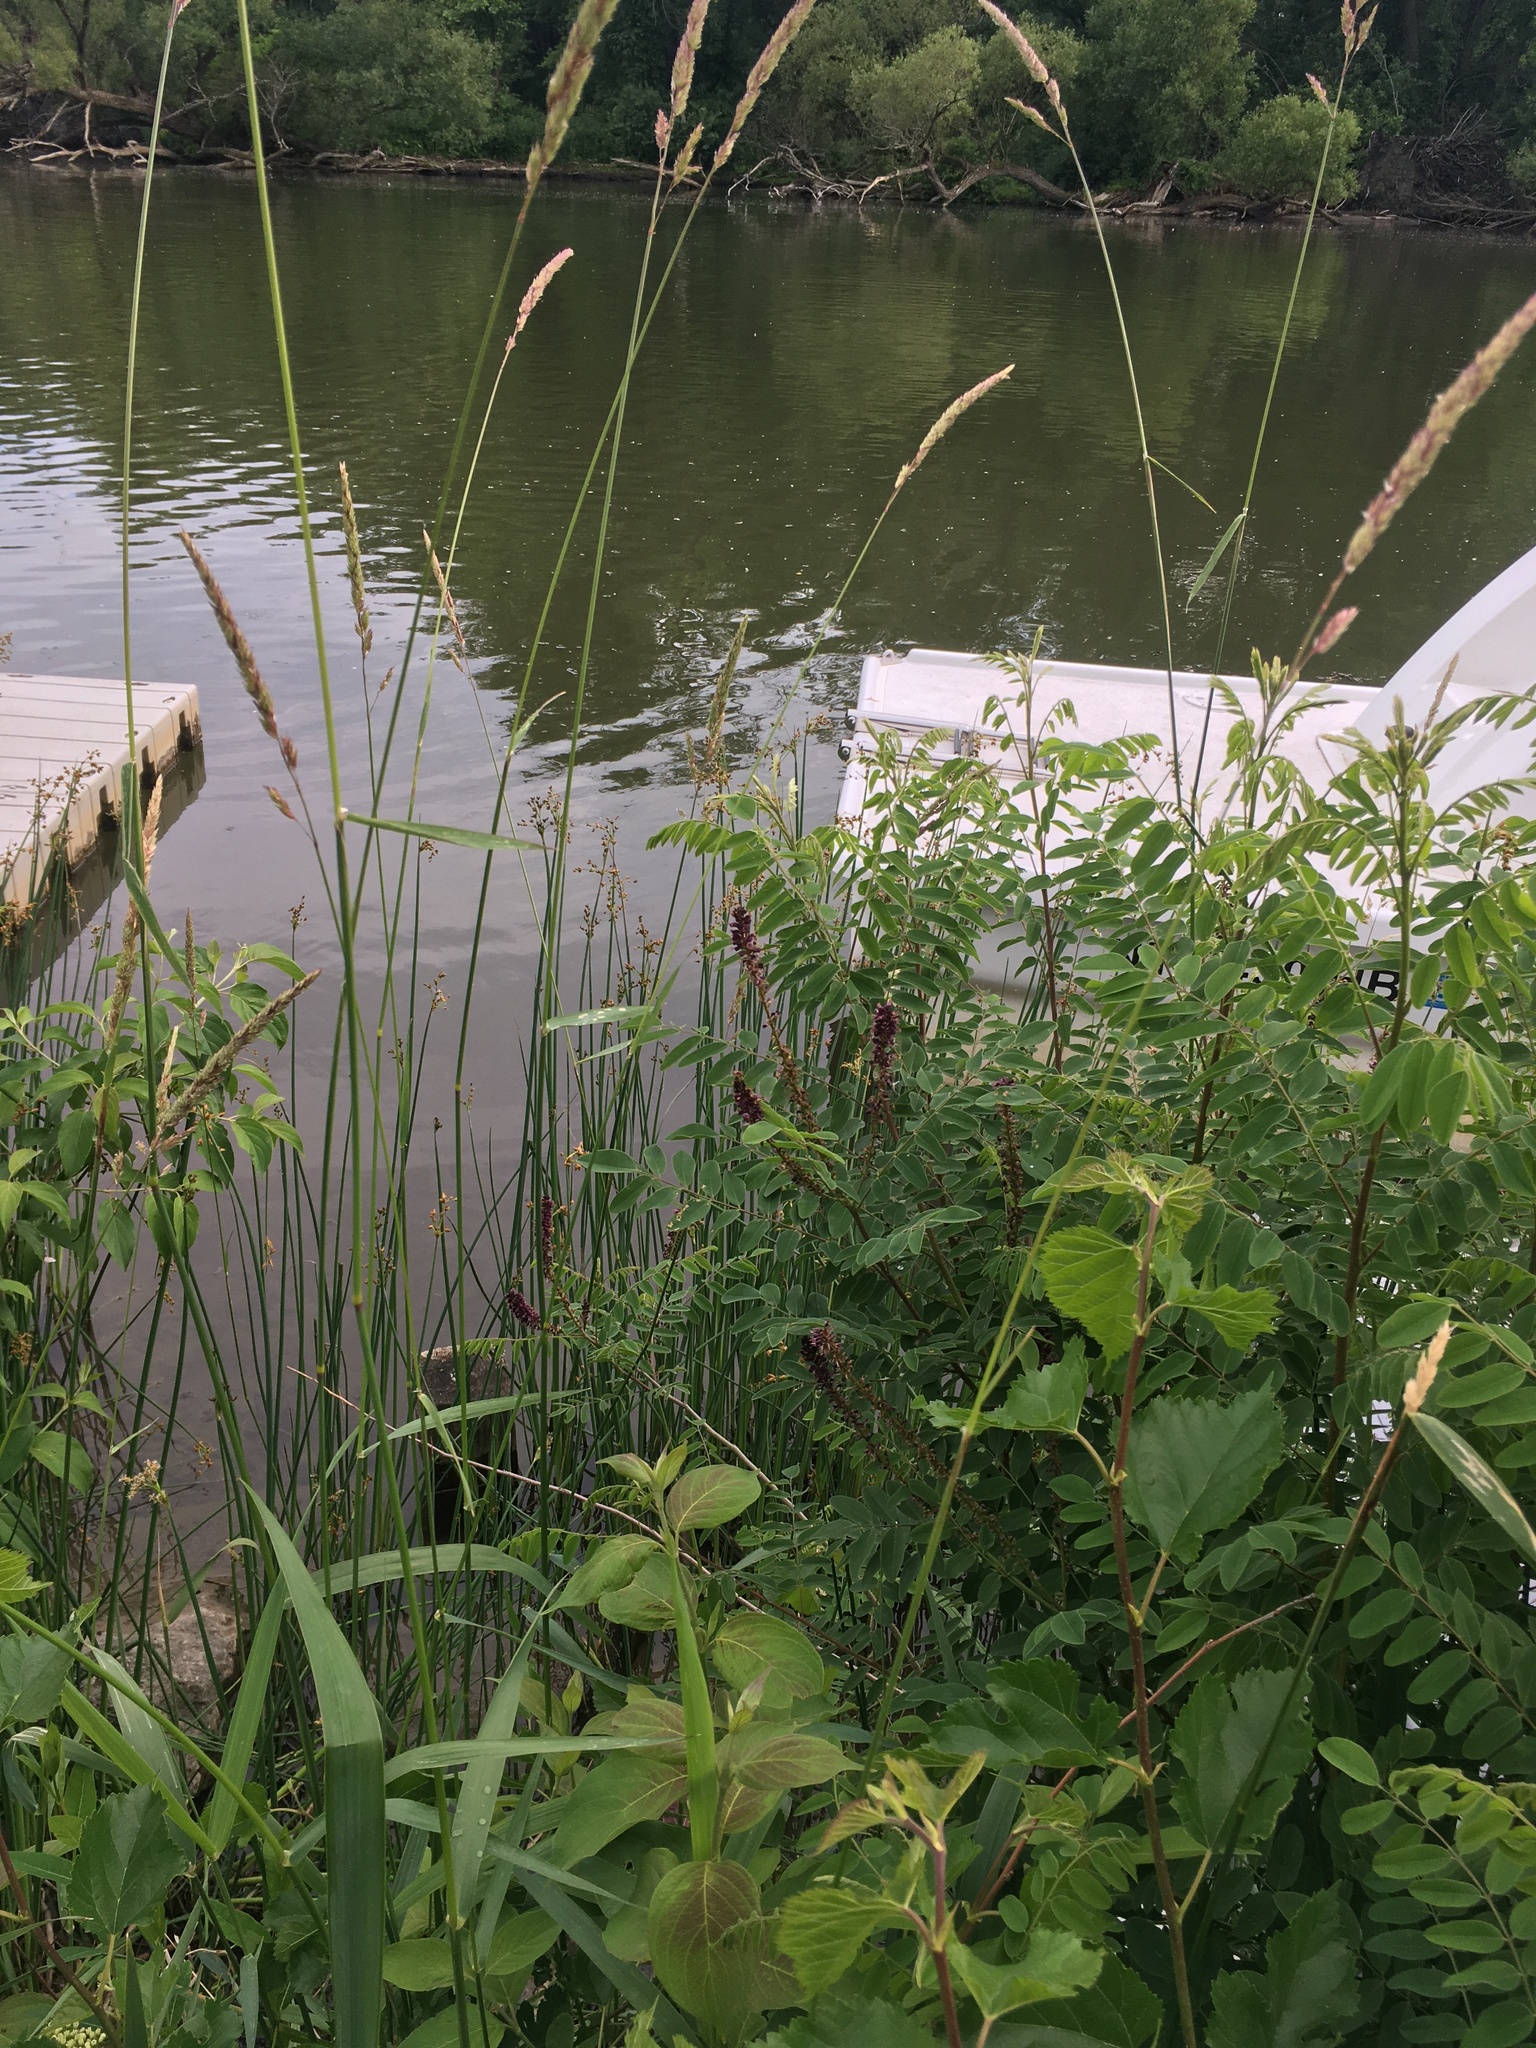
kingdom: Plantae
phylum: Tracheophyta
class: Magnoliopsida
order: Fabales
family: Fabaceae
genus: Amorpha
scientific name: Amorpha fruticosa
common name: False indigo
